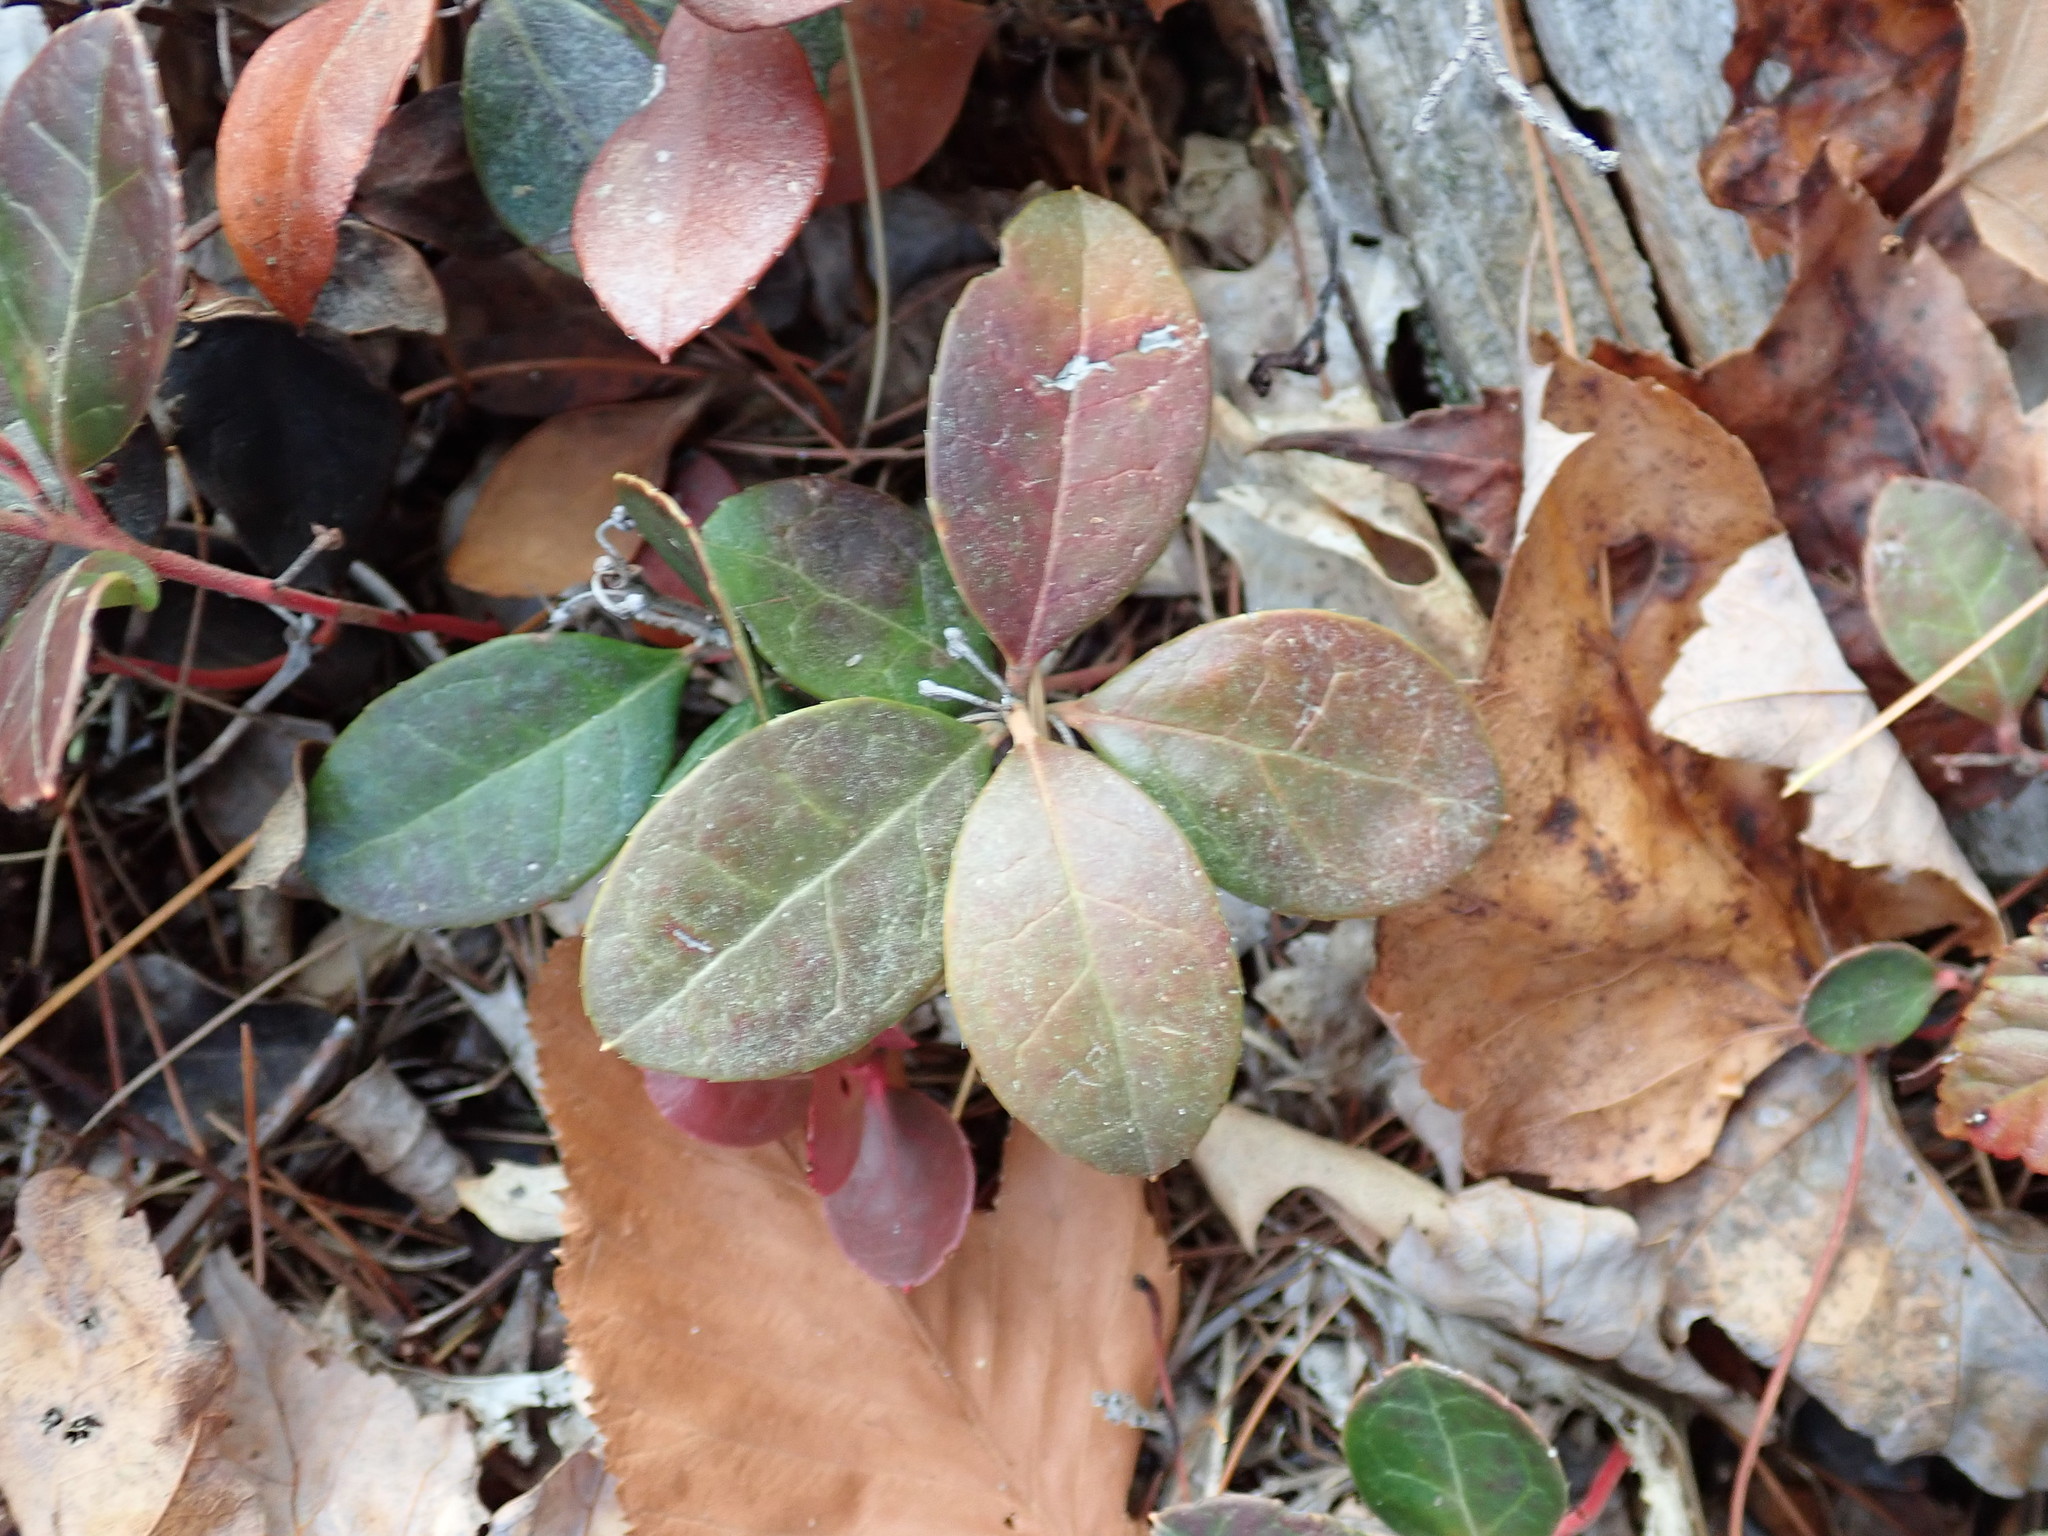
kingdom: Plantae
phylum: Tracheophyta
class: Magnoliopsida
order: Ericales
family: Ericaceae
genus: Gaultheria
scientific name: Gaultheria procumbens
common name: Checkerberry
